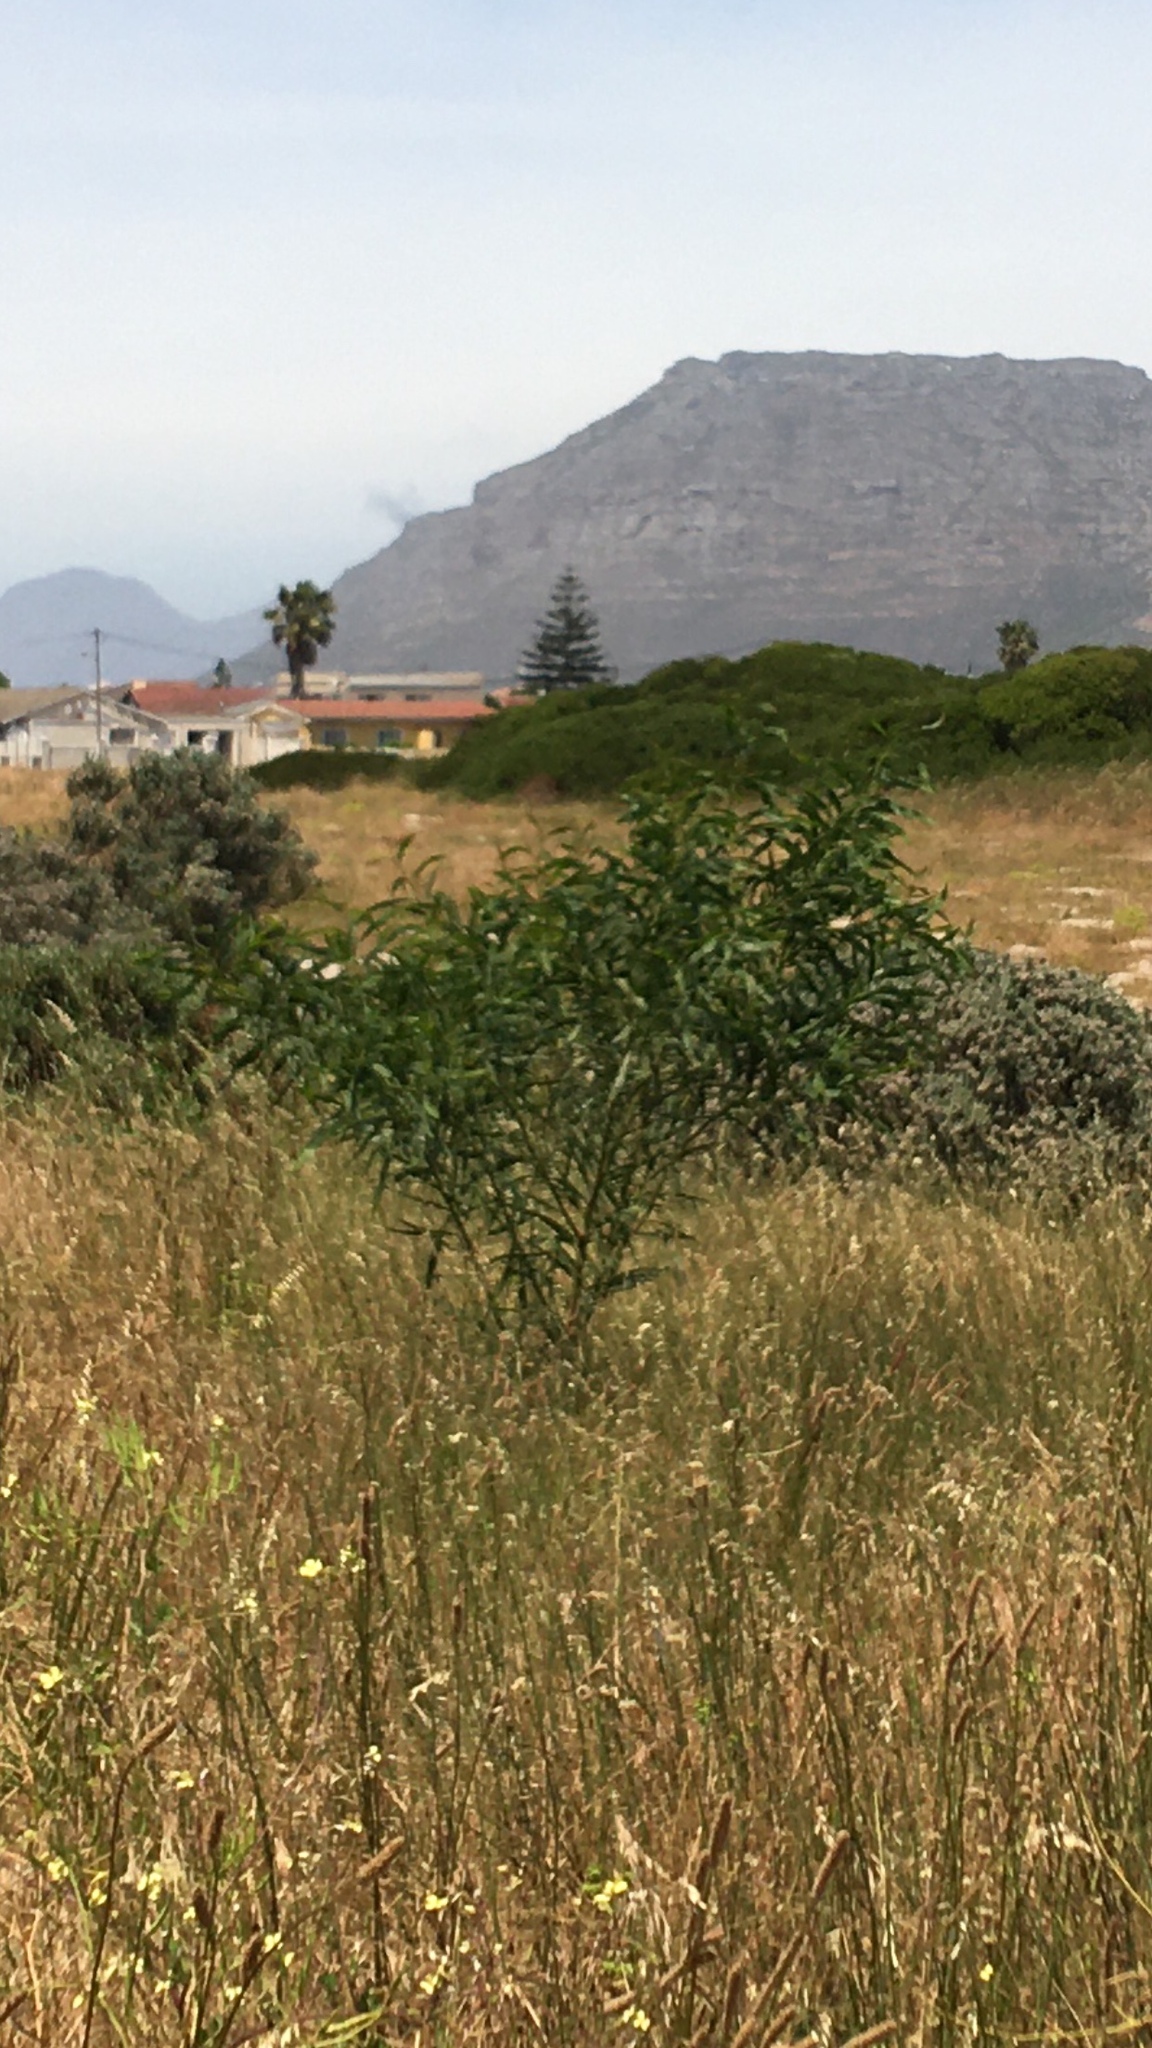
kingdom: Plantae
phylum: Tracheophyta
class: Magnoliopsida
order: Fabales
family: Fabaceae
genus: Acacia
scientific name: Acacia saligna
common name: Orange wattle
